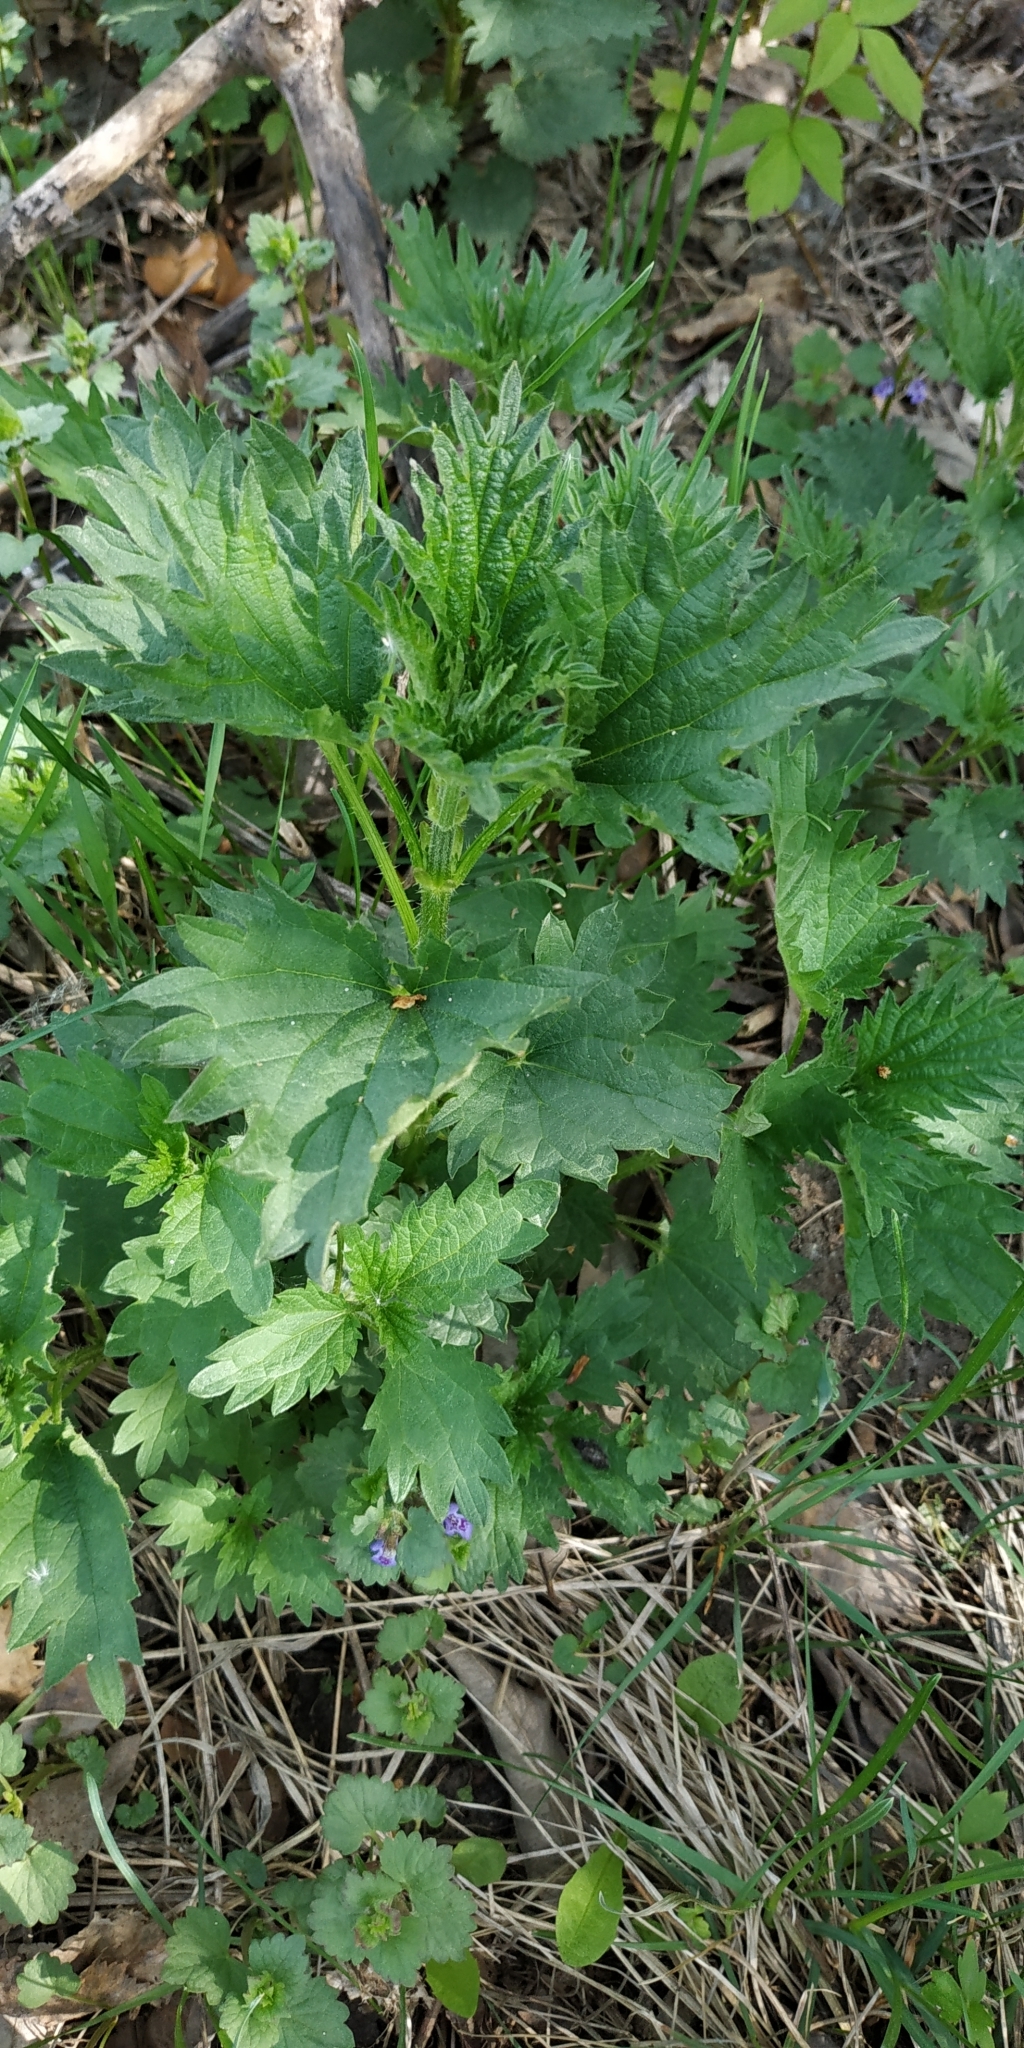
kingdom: Plantae
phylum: Tracheophyta
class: Magnoliopsida
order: Rosales
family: Urticaceae
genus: Urtica
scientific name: Urtica dioica
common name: Common nettle
